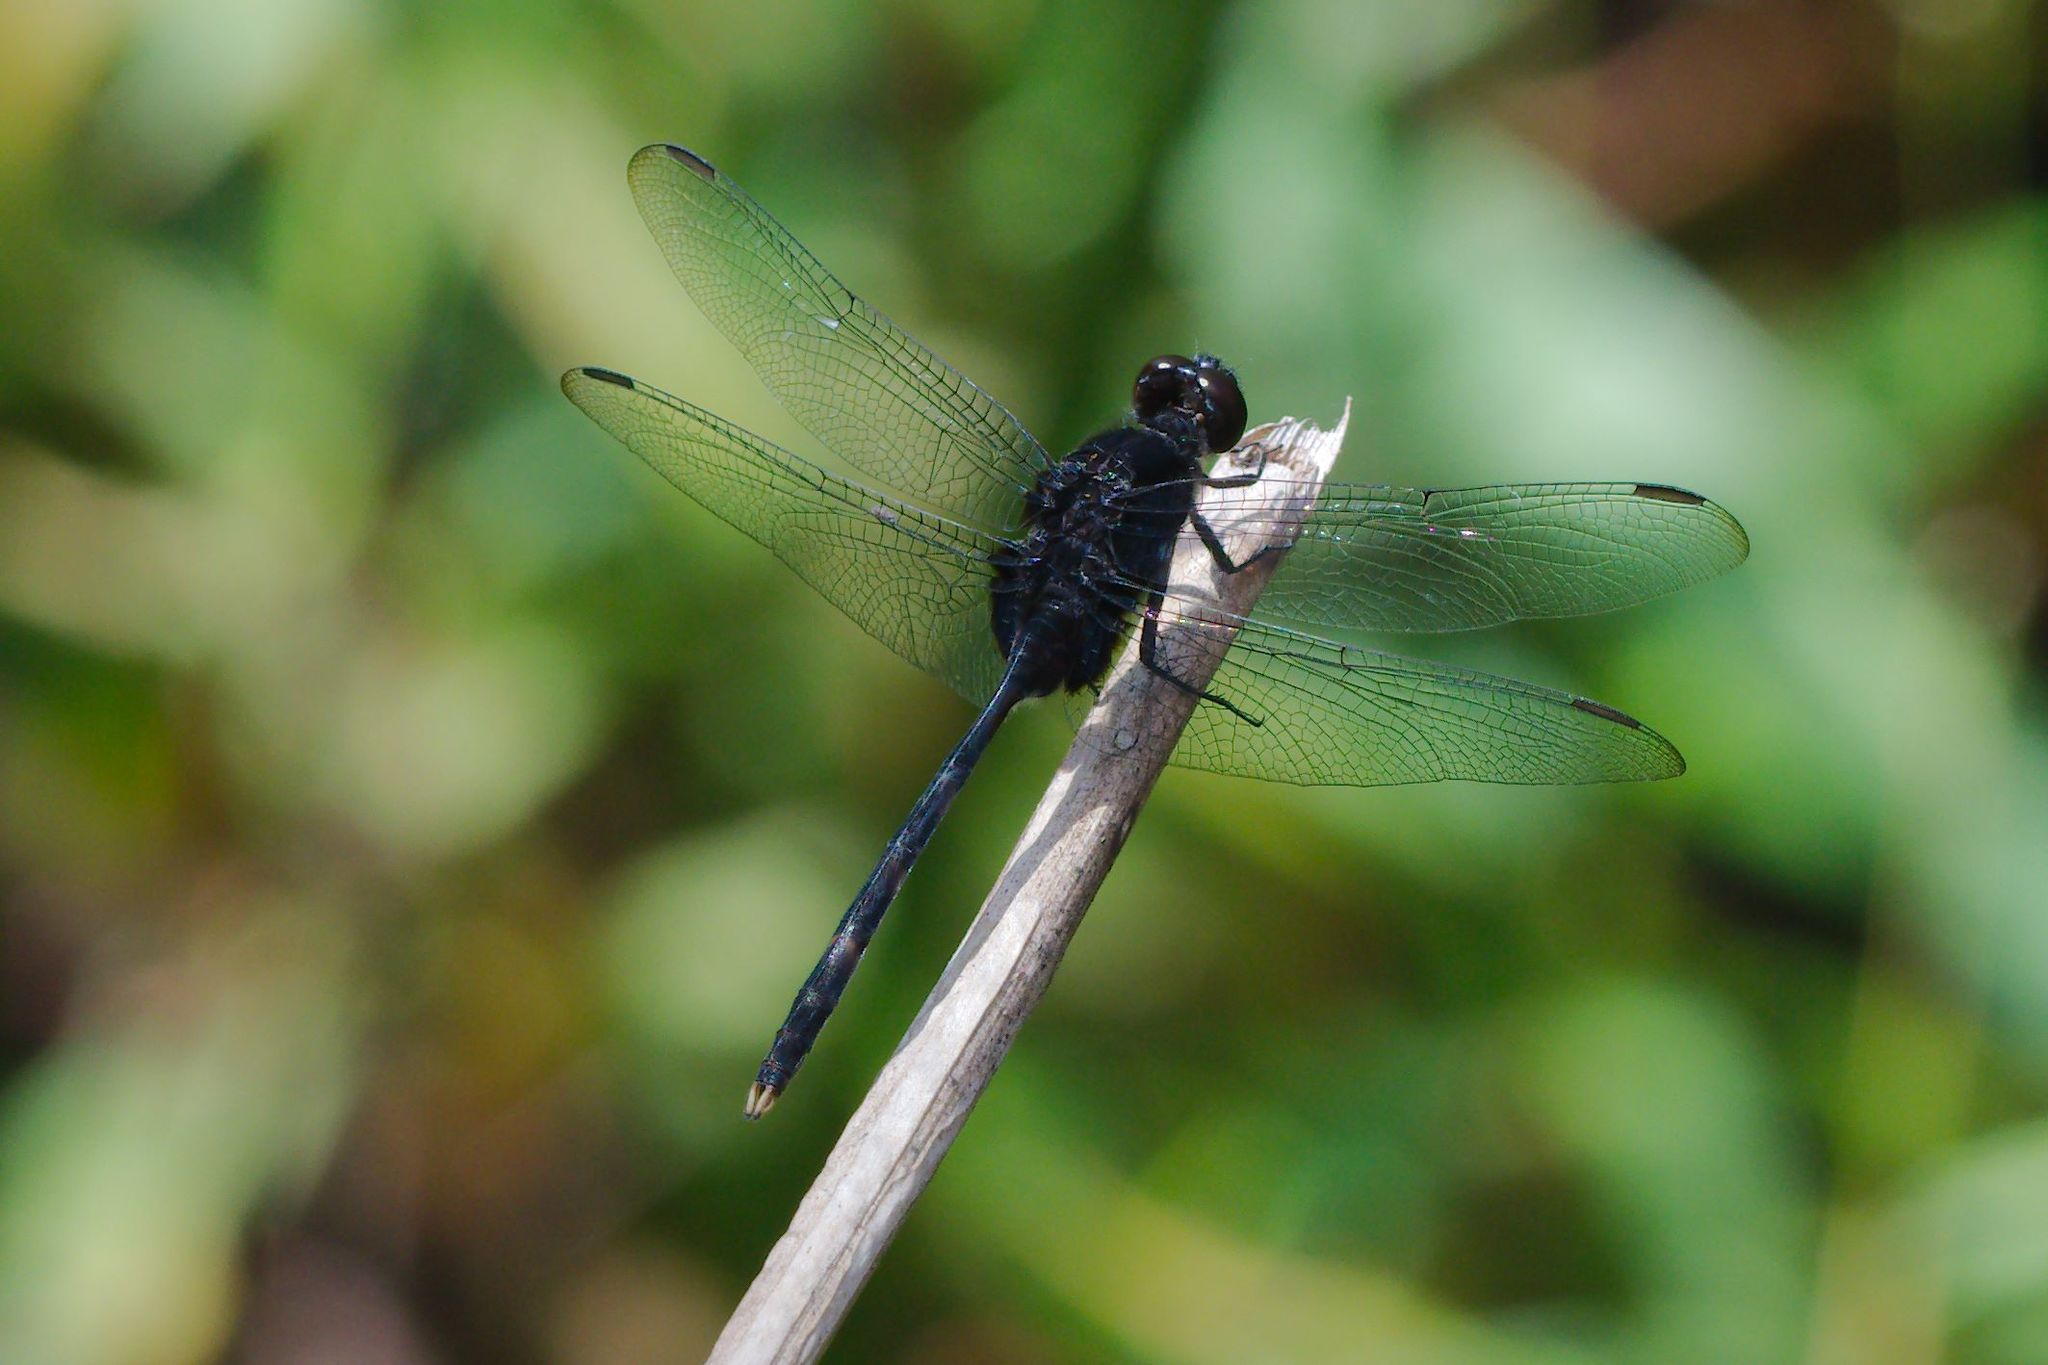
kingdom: Animalia
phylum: Arthropoda
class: Insecta
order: Odonata
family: Libellulidae
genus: Erythemis
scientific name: Erythemis plebeja
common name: Pin-tailed pondhawk
